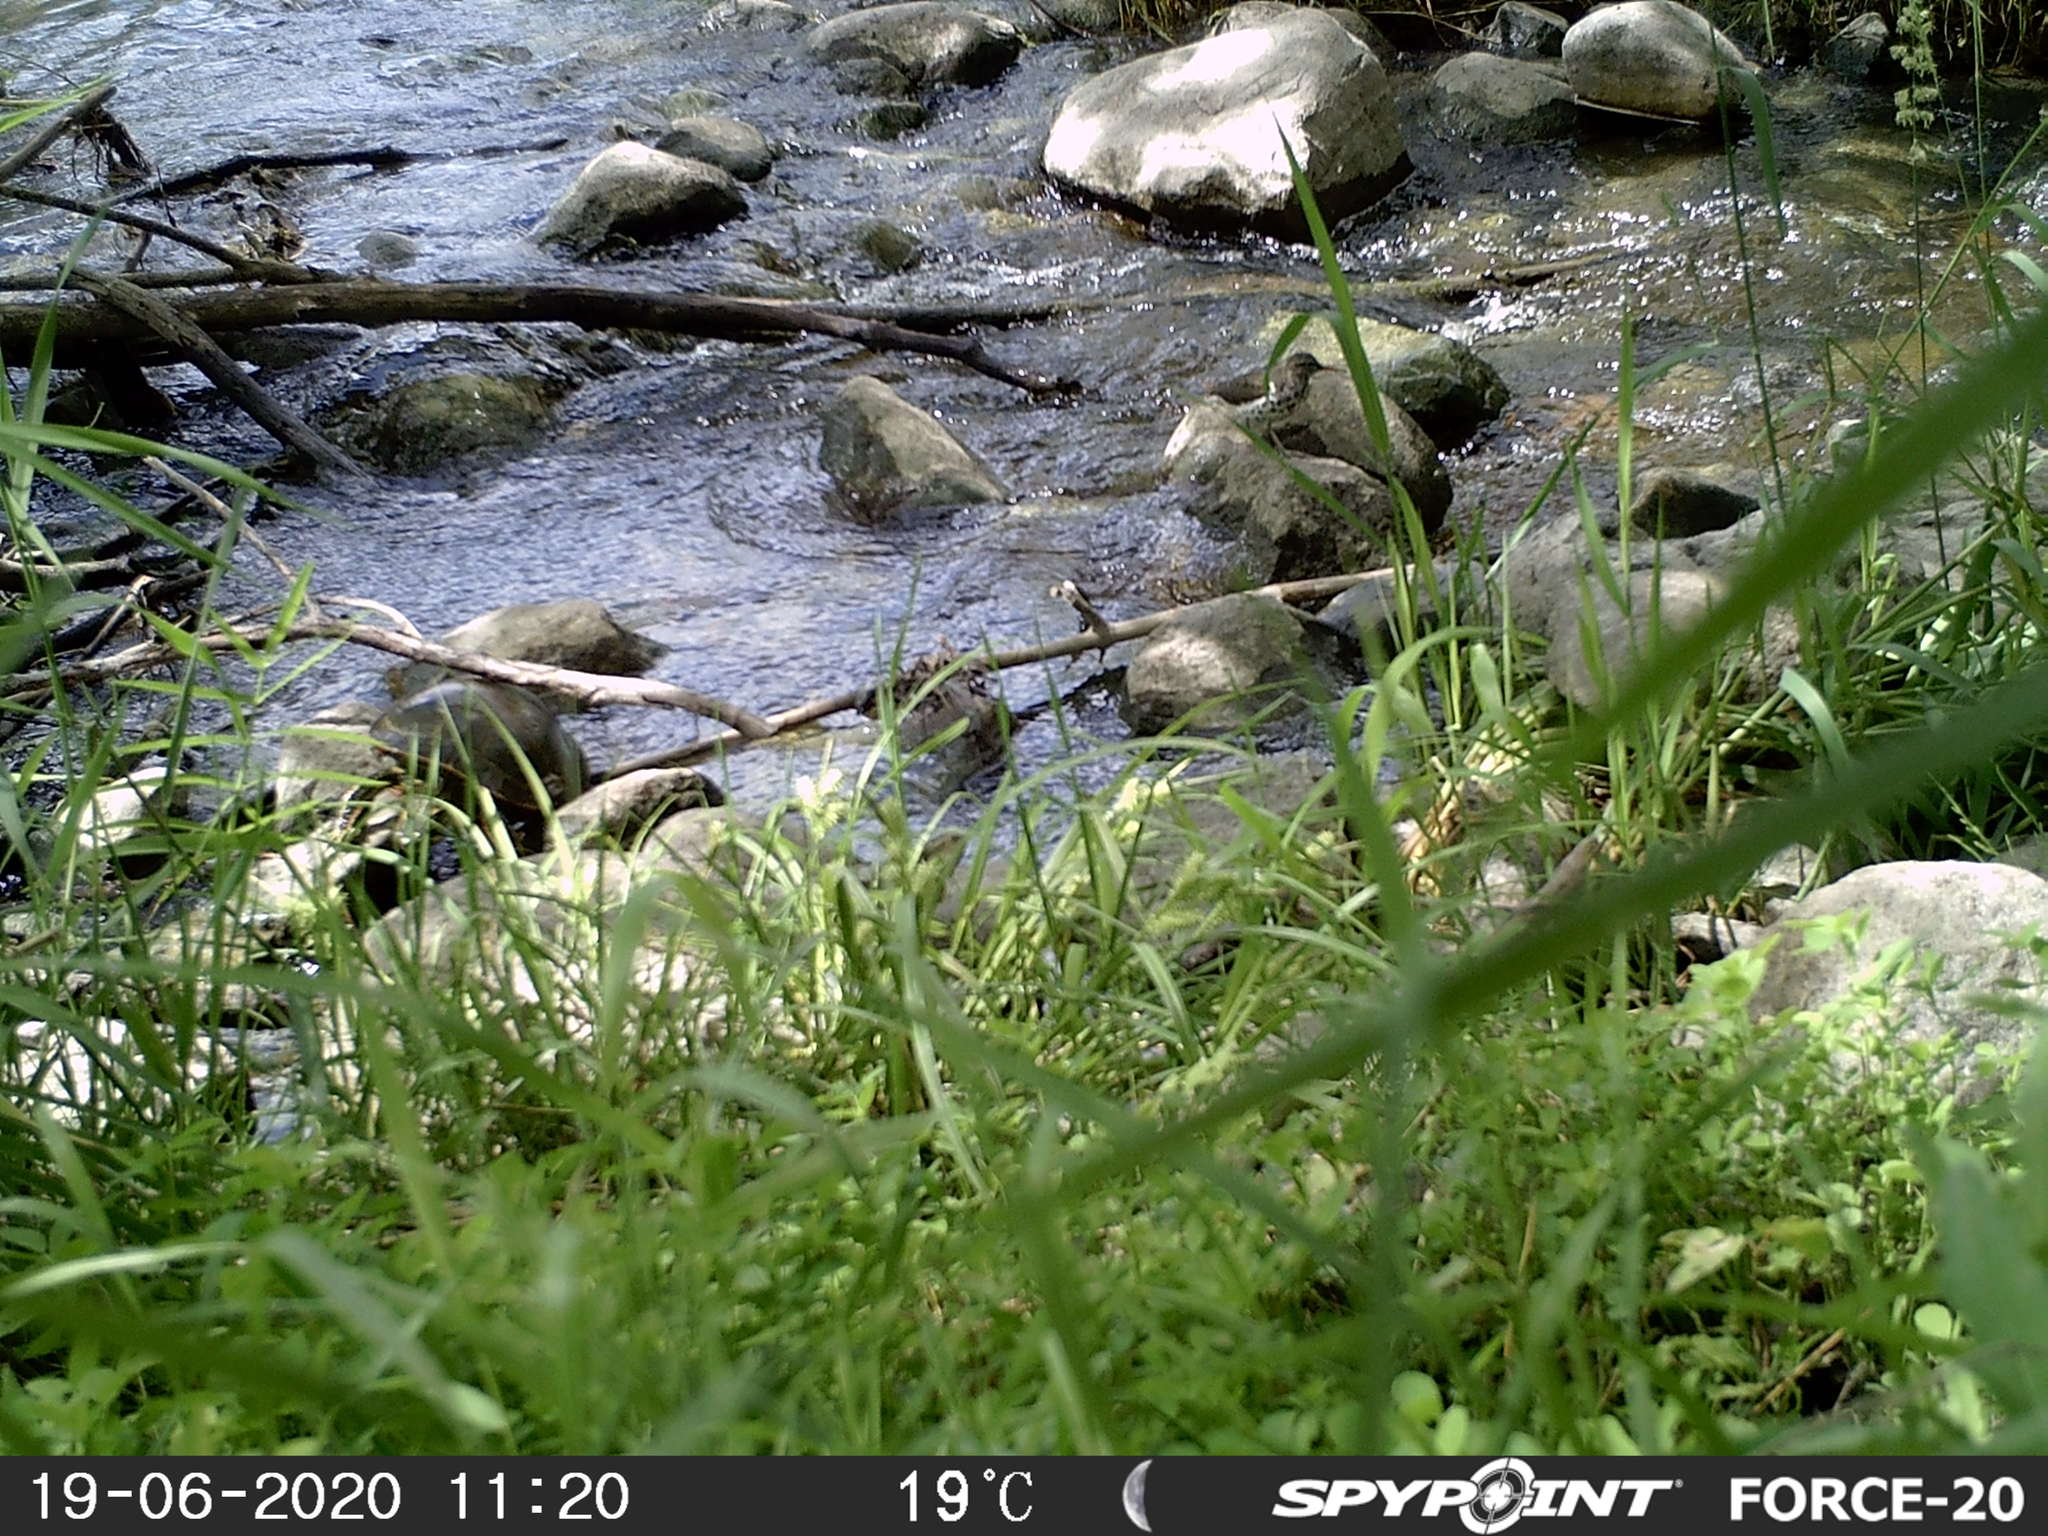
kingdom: Animalia
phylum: Chordata
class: Testudines
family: Emydidae
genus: Chrysemys
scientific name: Chrysemys picta
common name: Painted turtle
